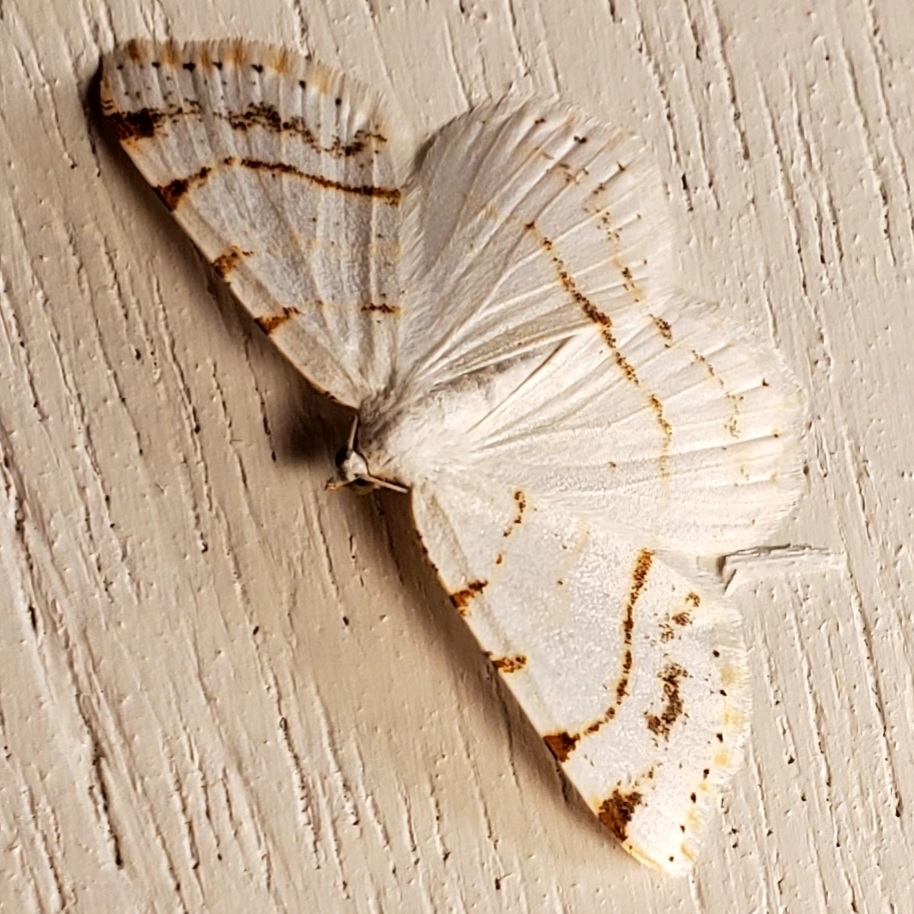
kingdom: Animalia
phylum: Arthropoda
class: Insecta
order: Lepidoptera
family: Geometridae
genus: Macaria
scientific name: Macaria pustularia
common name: Lesser maple spanworm moth
